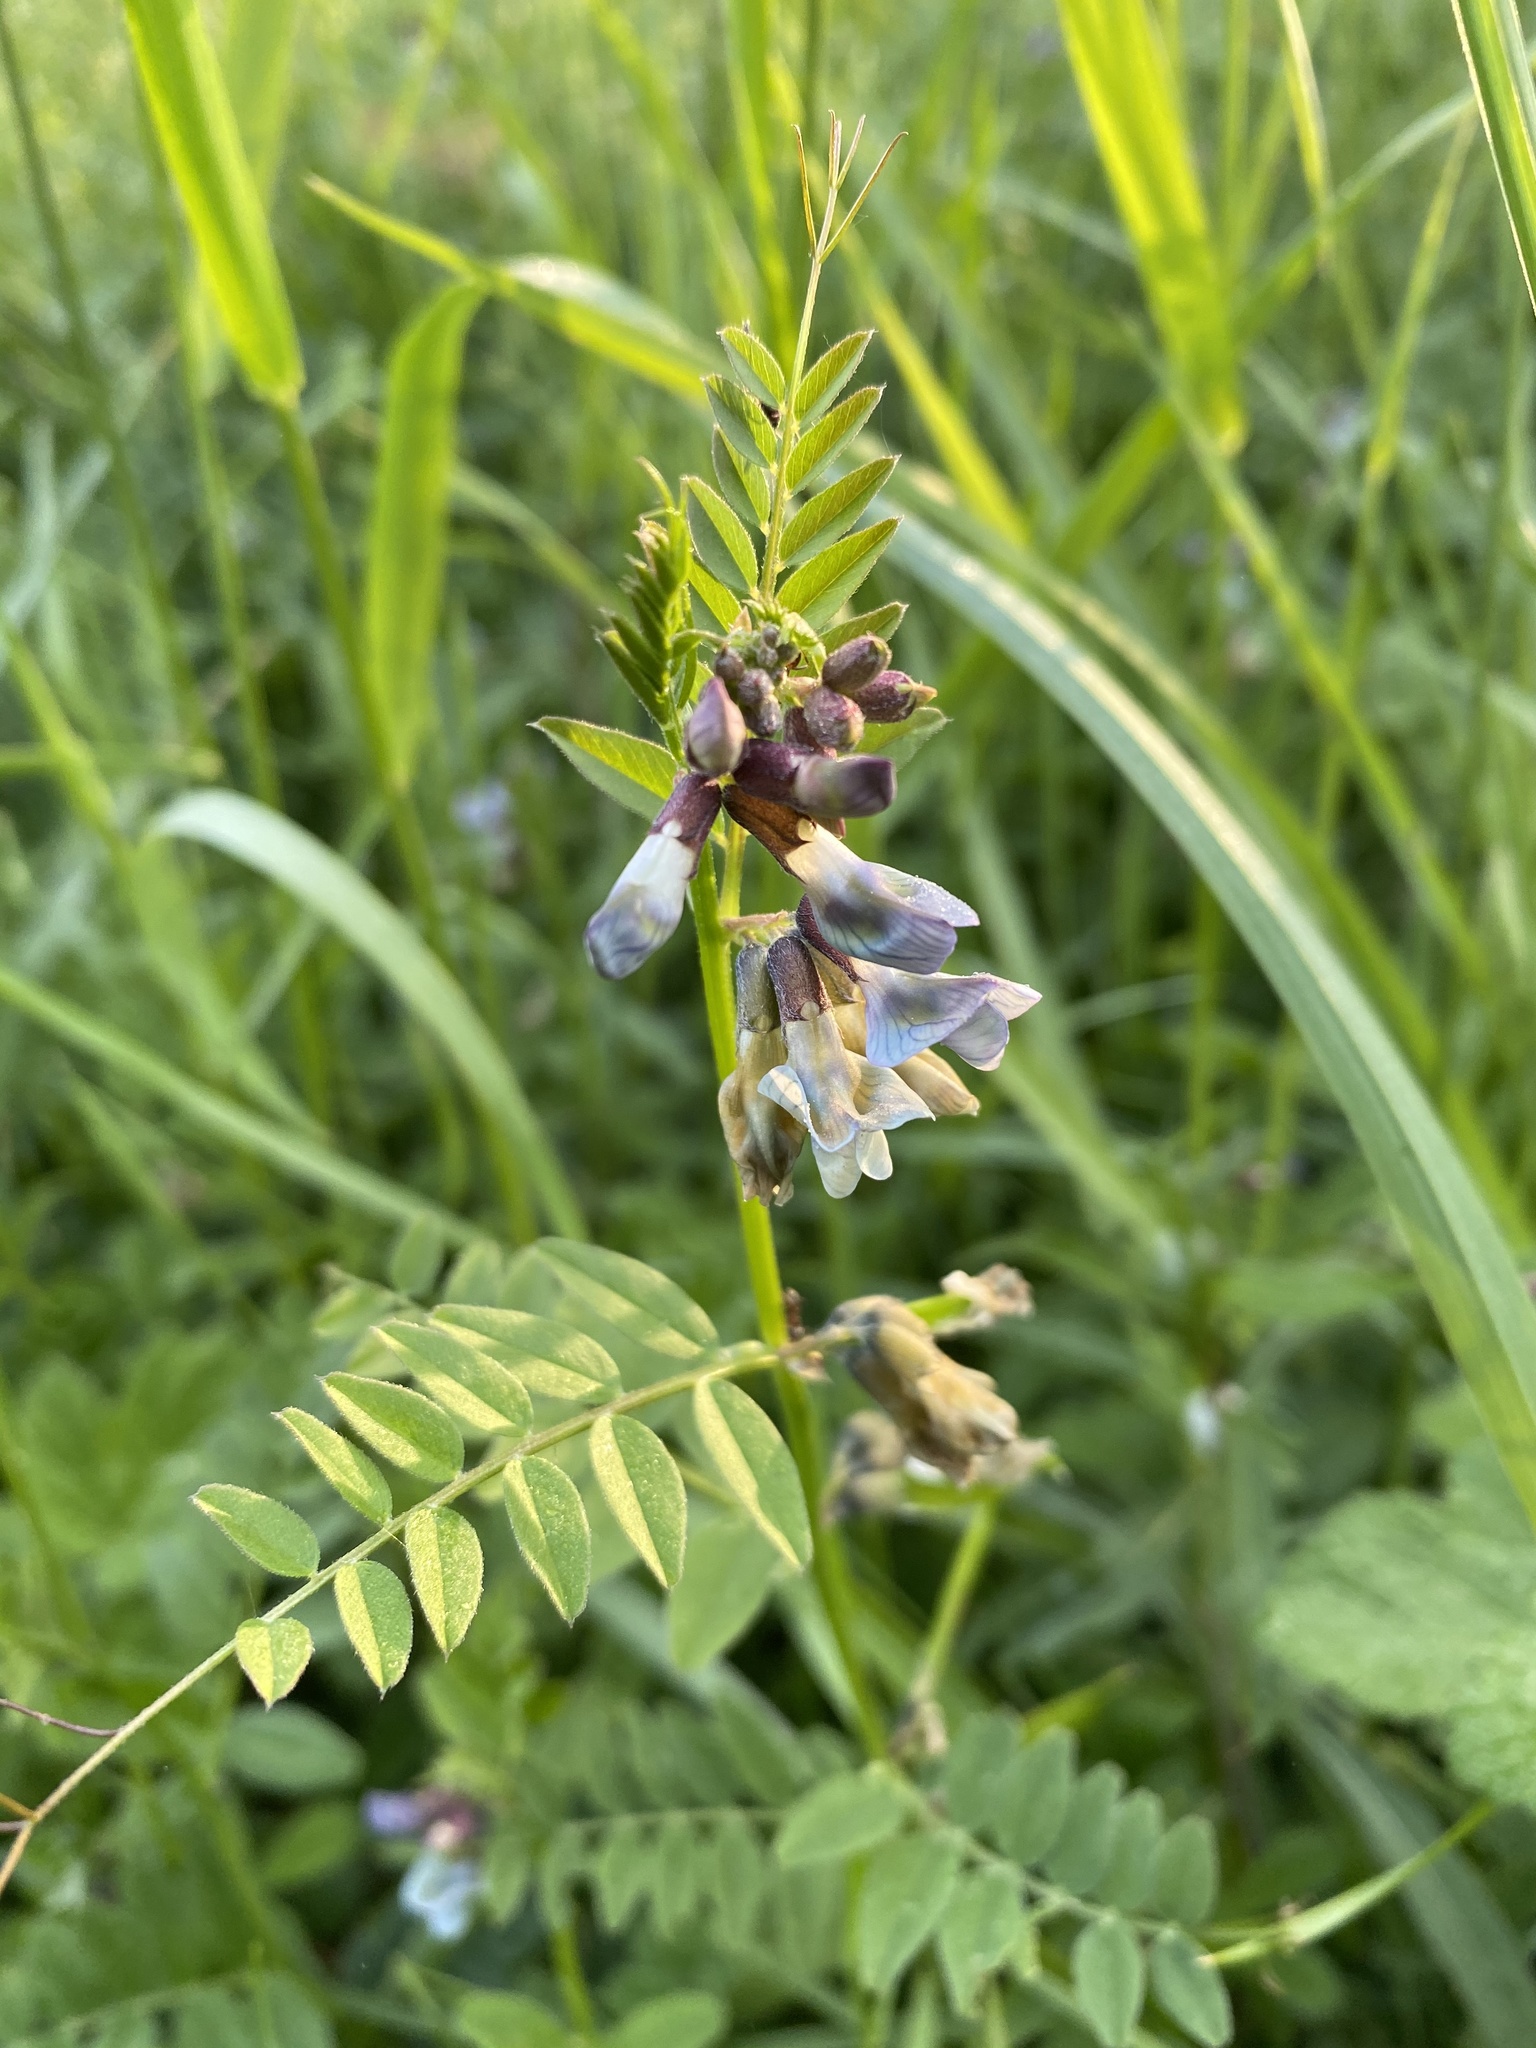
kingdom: Plantae
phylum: Tracheophyta
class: Magnoliopsida
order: Fabales
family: Fabaceae
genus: Vicia
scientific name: Vicia sepium
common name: Bush vetch
